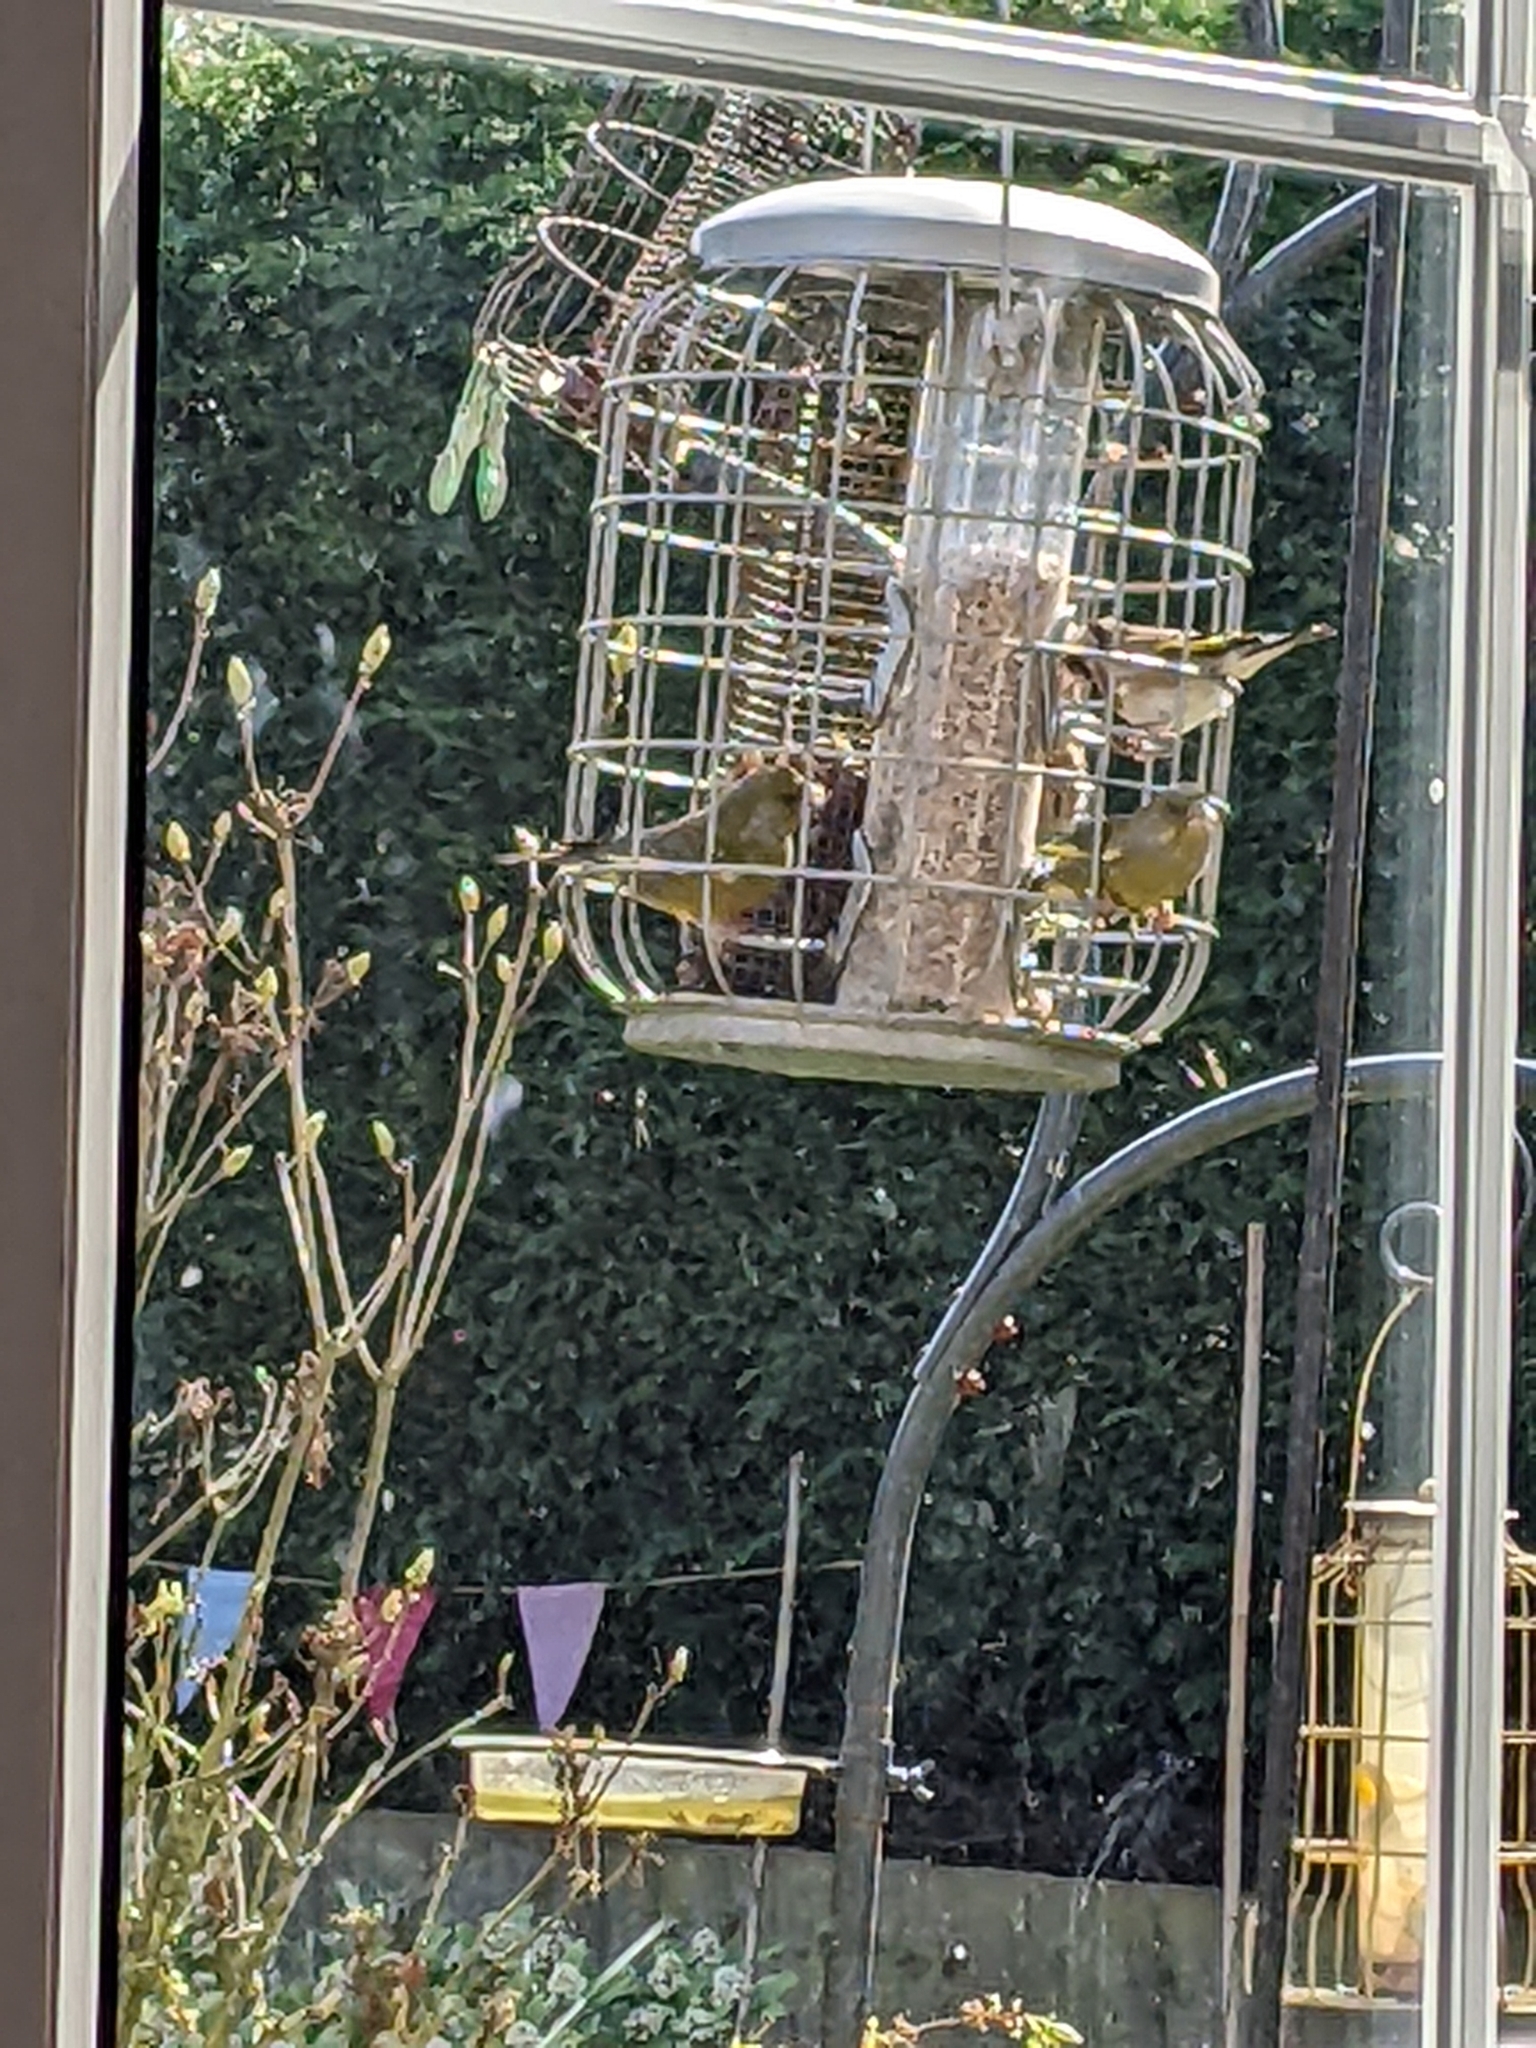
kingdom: Plantae
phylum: Tracheophyta
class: Liliopsida
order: Poales
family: Poaceae
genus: Chloris
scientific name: Chloris chloris
